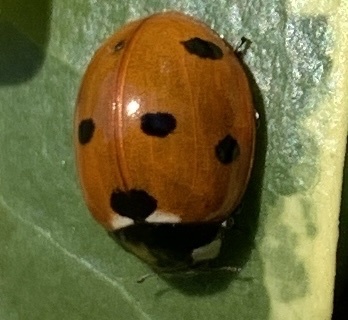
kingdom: Animalia
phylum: Arthropoda
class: Insecta
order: Coleoptera
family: Coccinellidae
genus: Coccinella
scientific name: Coccinella septempunctata
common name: Sevenspotted lady beetle
